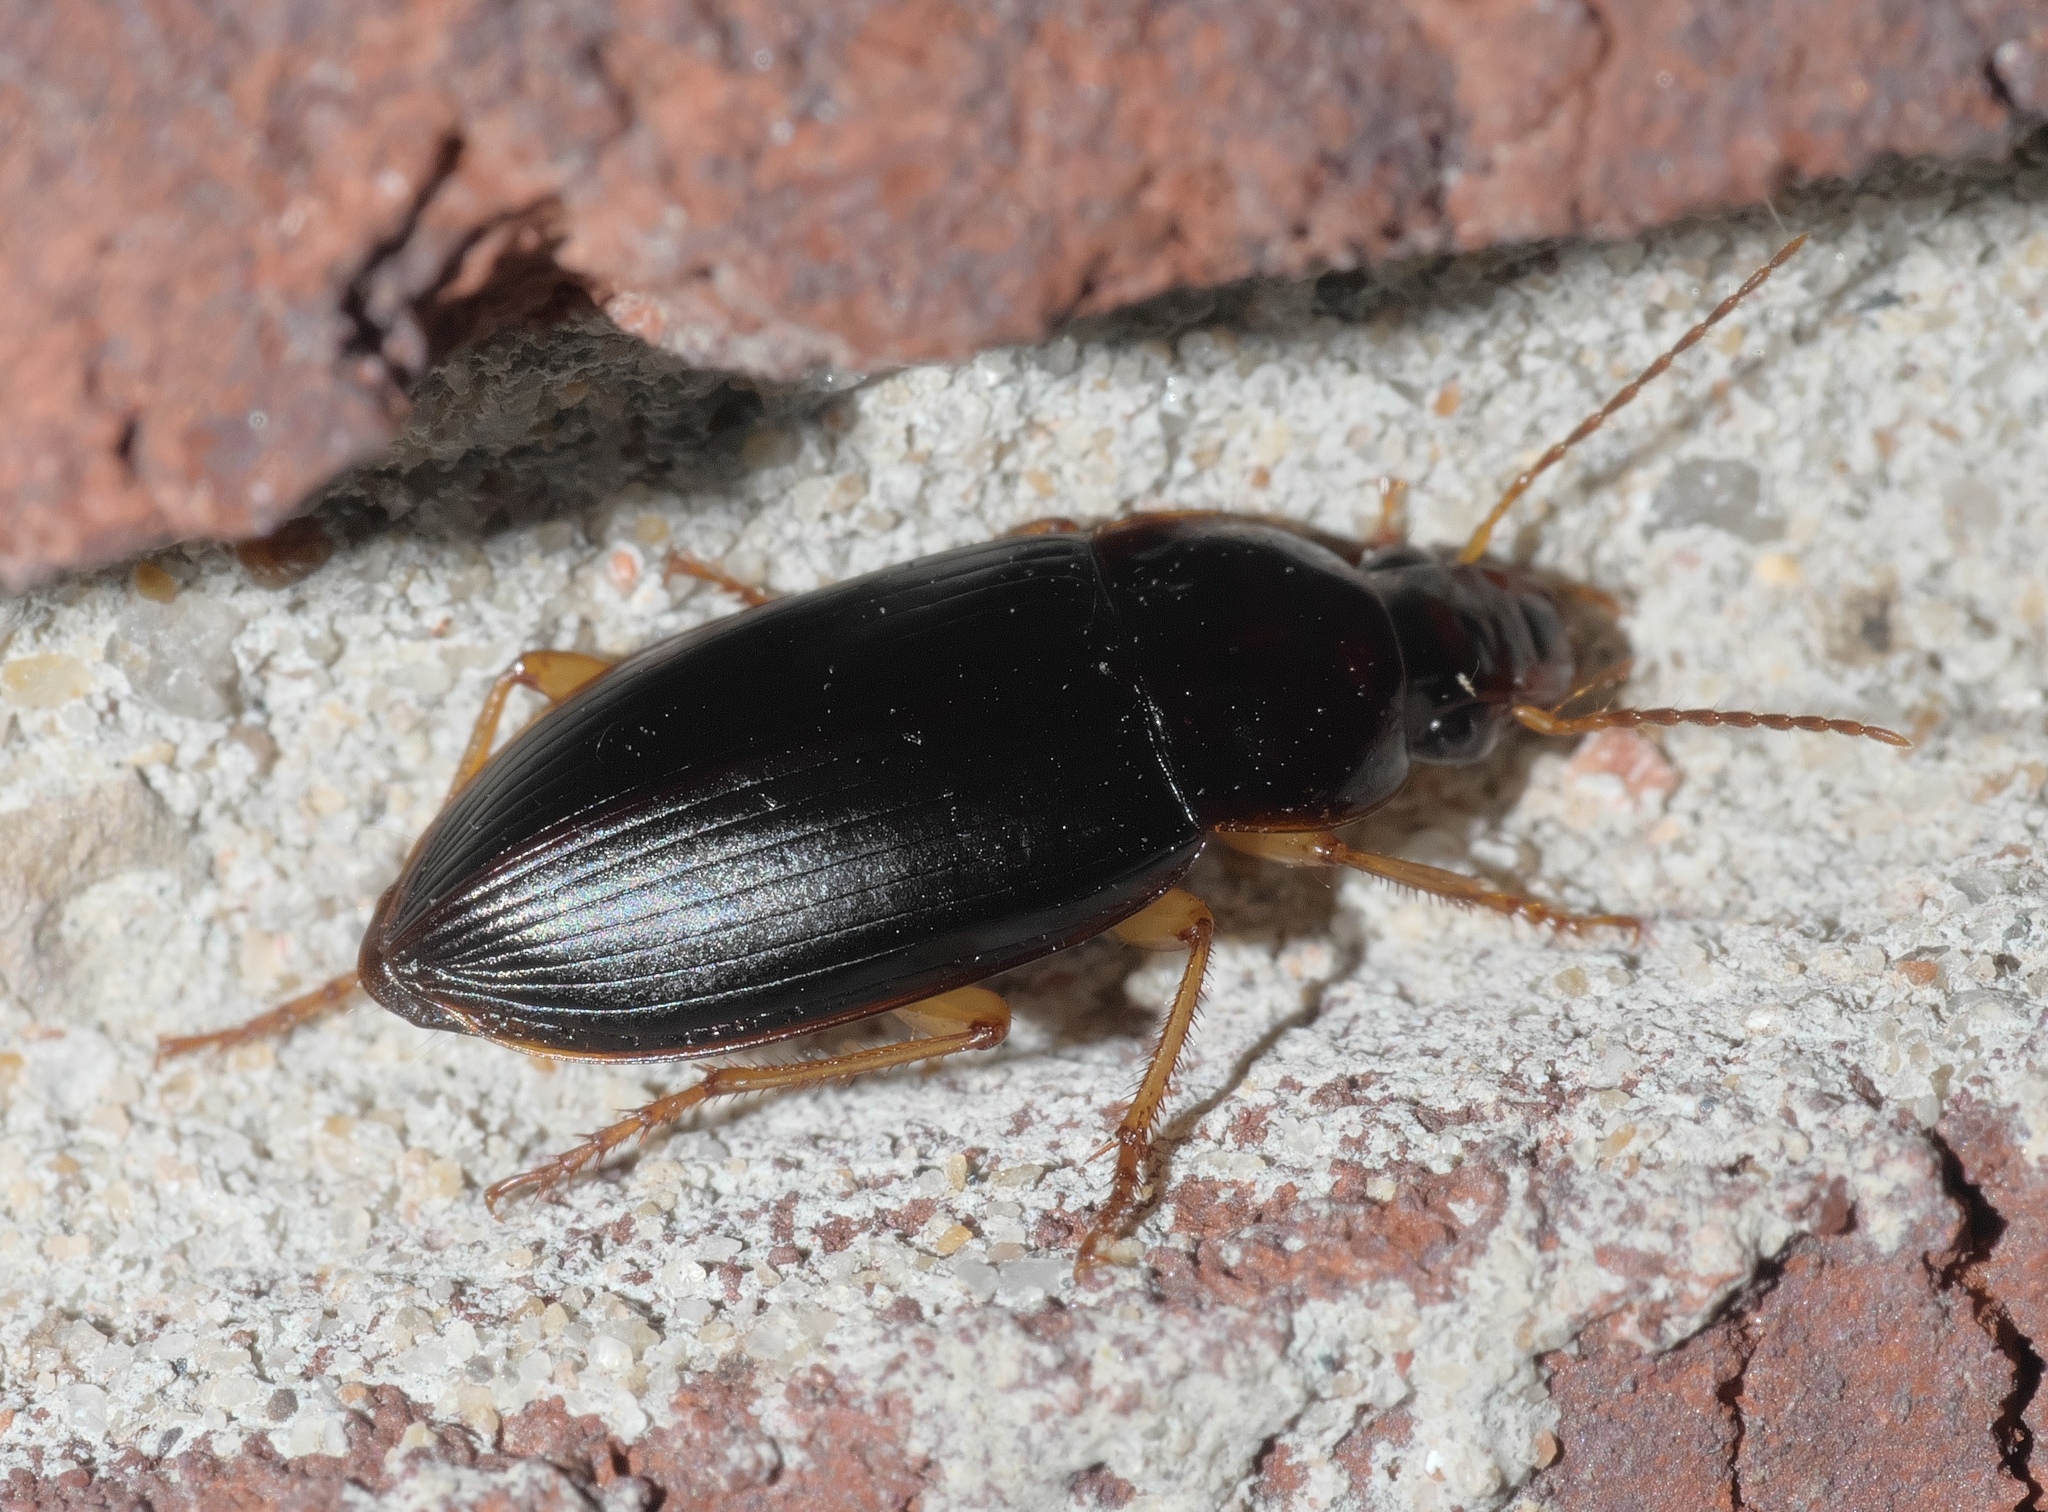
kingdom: Animalia
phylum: Arthropoda
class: Insecta
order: Coleoptera
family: Carabidae
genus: Notiobia
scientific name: Notiobia terminata
